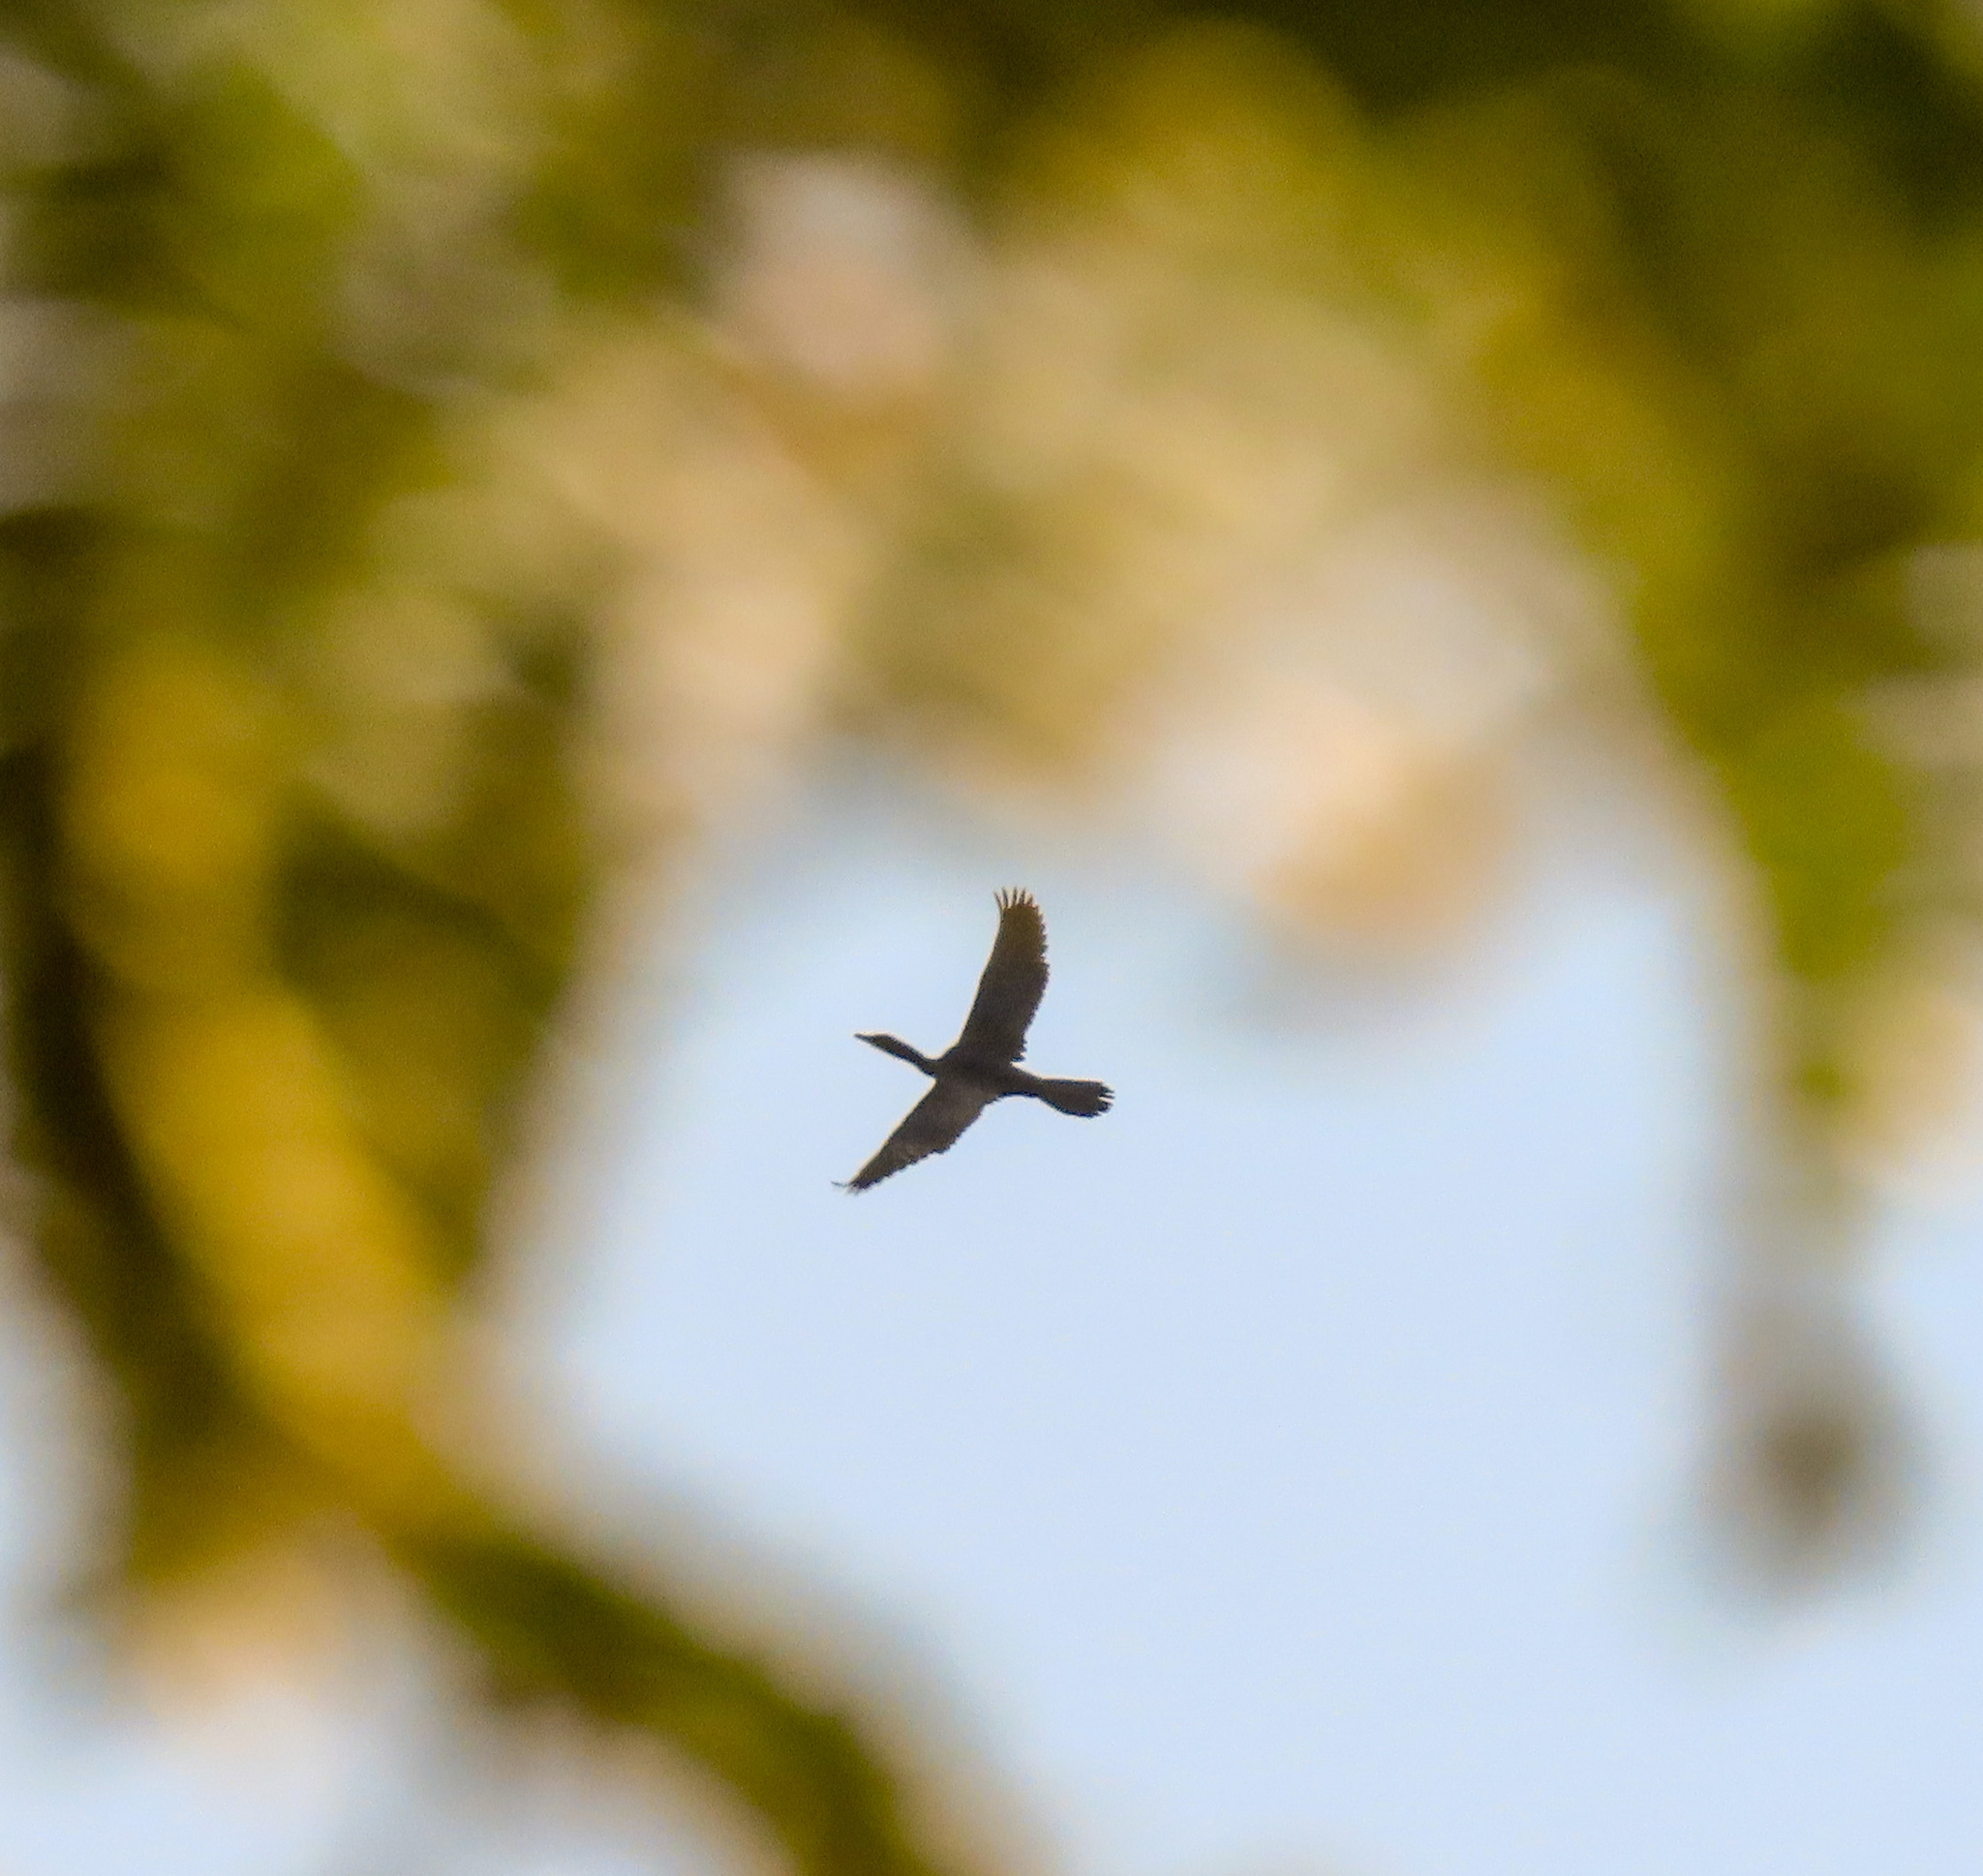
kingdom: Animalia
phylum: Chordata
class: Aves
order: Suliformes
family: Phalacrocoracidae
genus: Microcarbo
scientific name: Microcarbo niger
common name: Little cormorant
